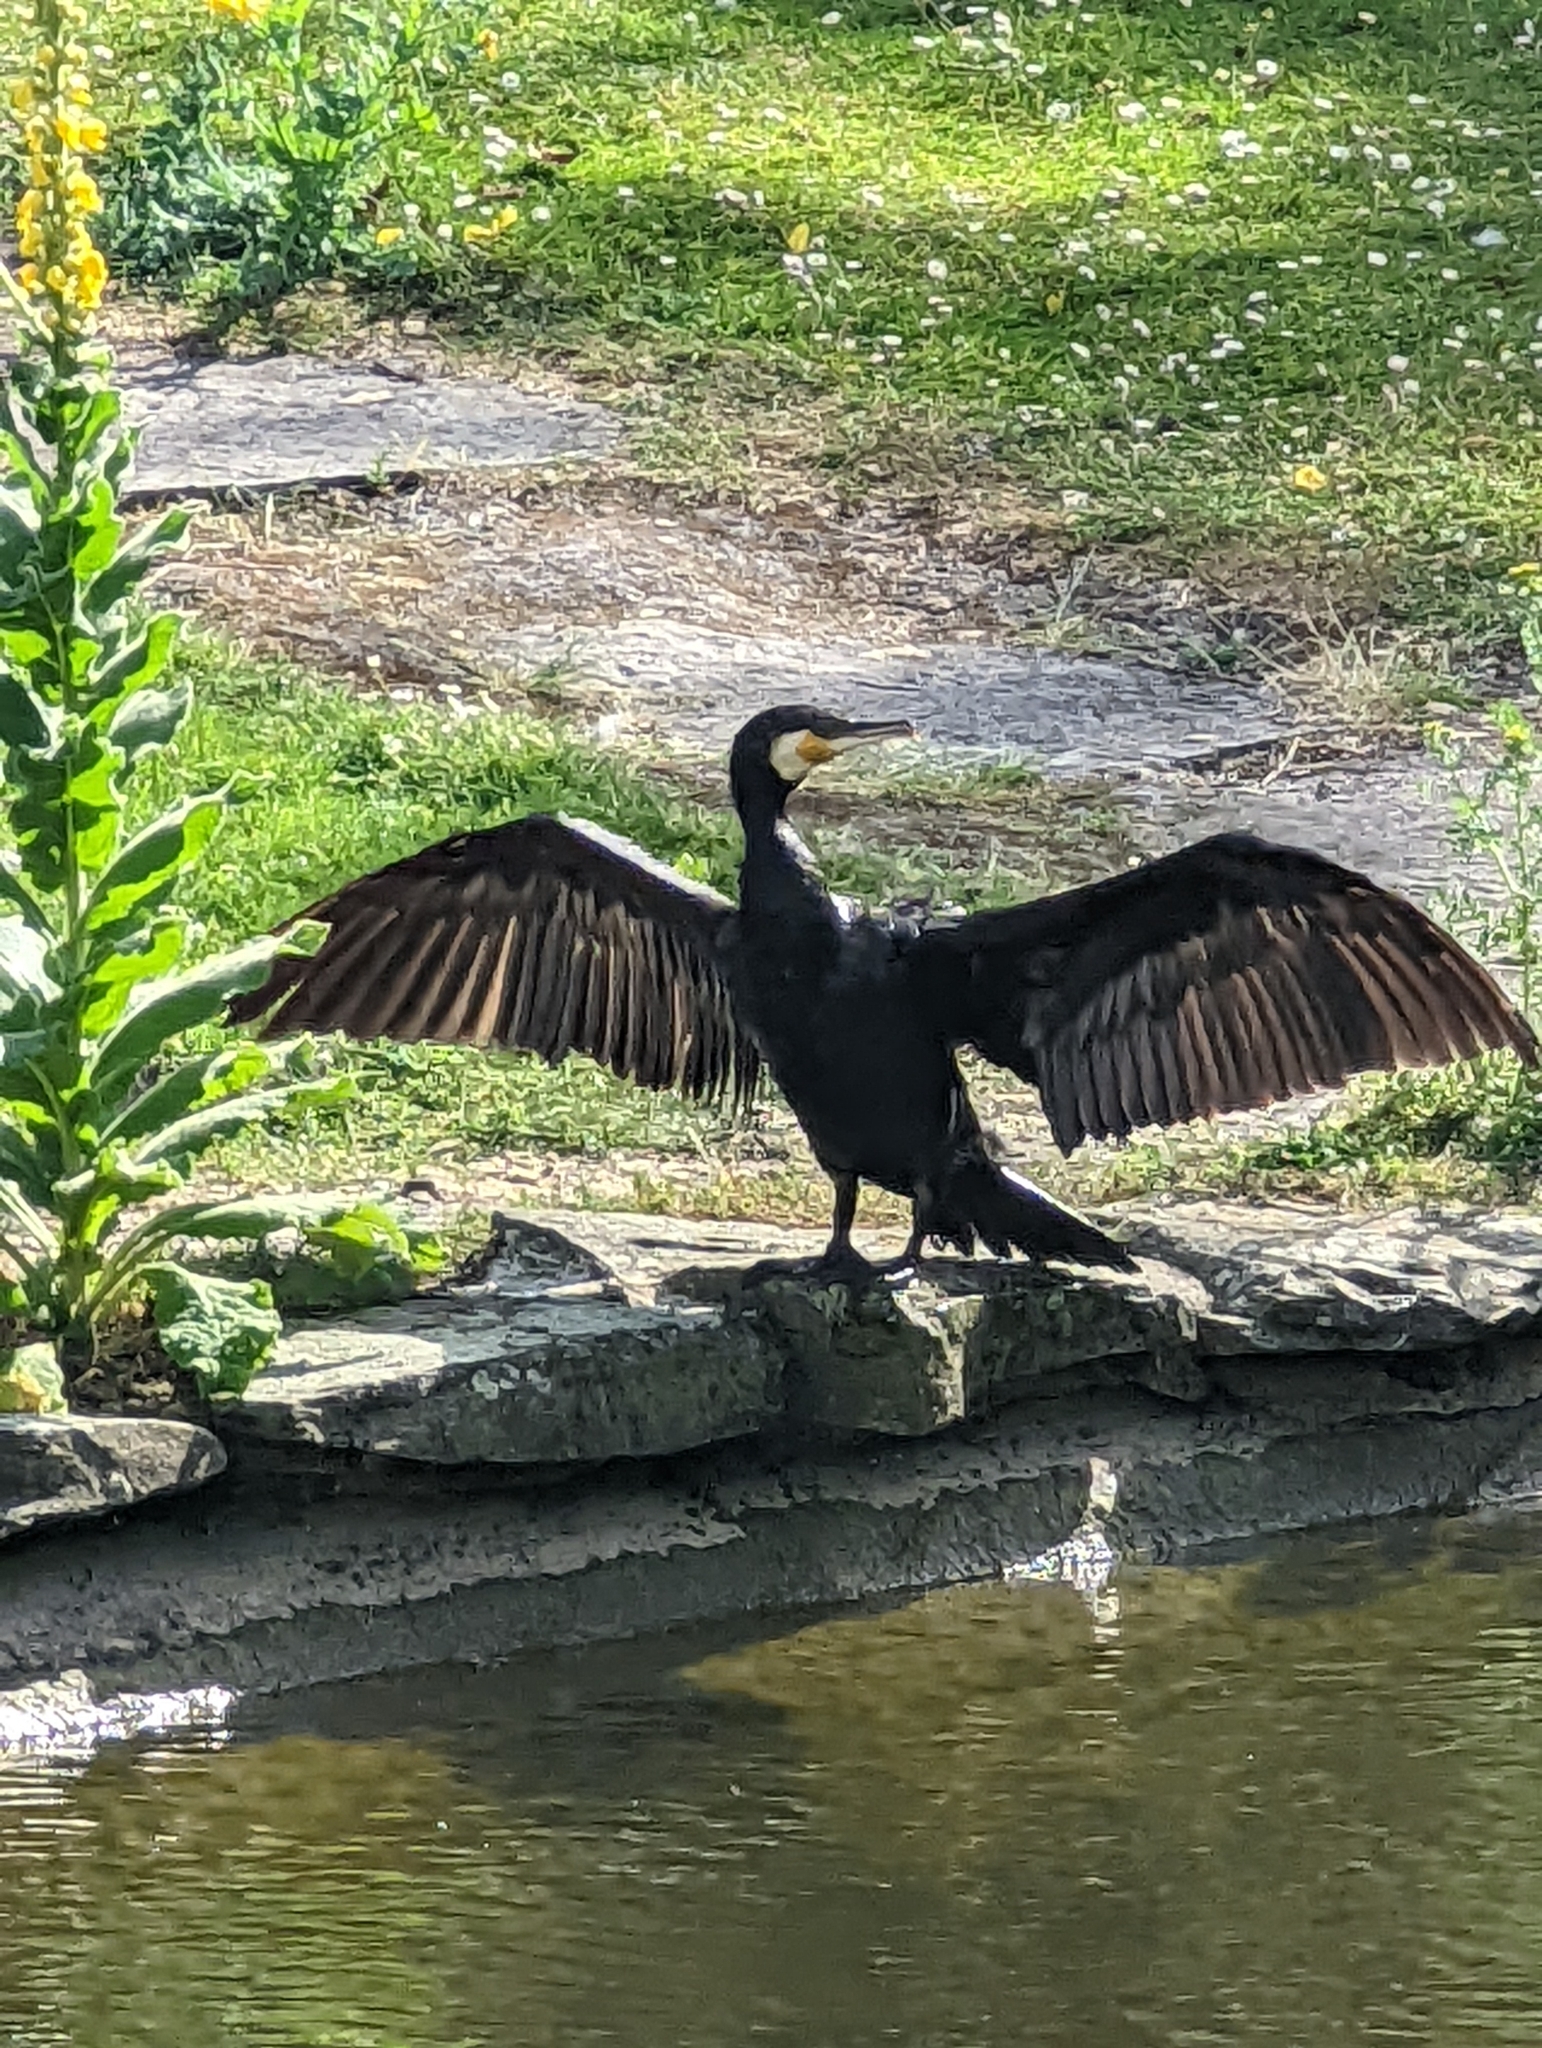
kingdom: Animalia
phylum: Chordata
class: Aves
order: Suliformes
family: Phalacrocoracidae
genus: Phalacrocorax
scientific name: Phalacrocorax carbo
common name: Great cormorant
